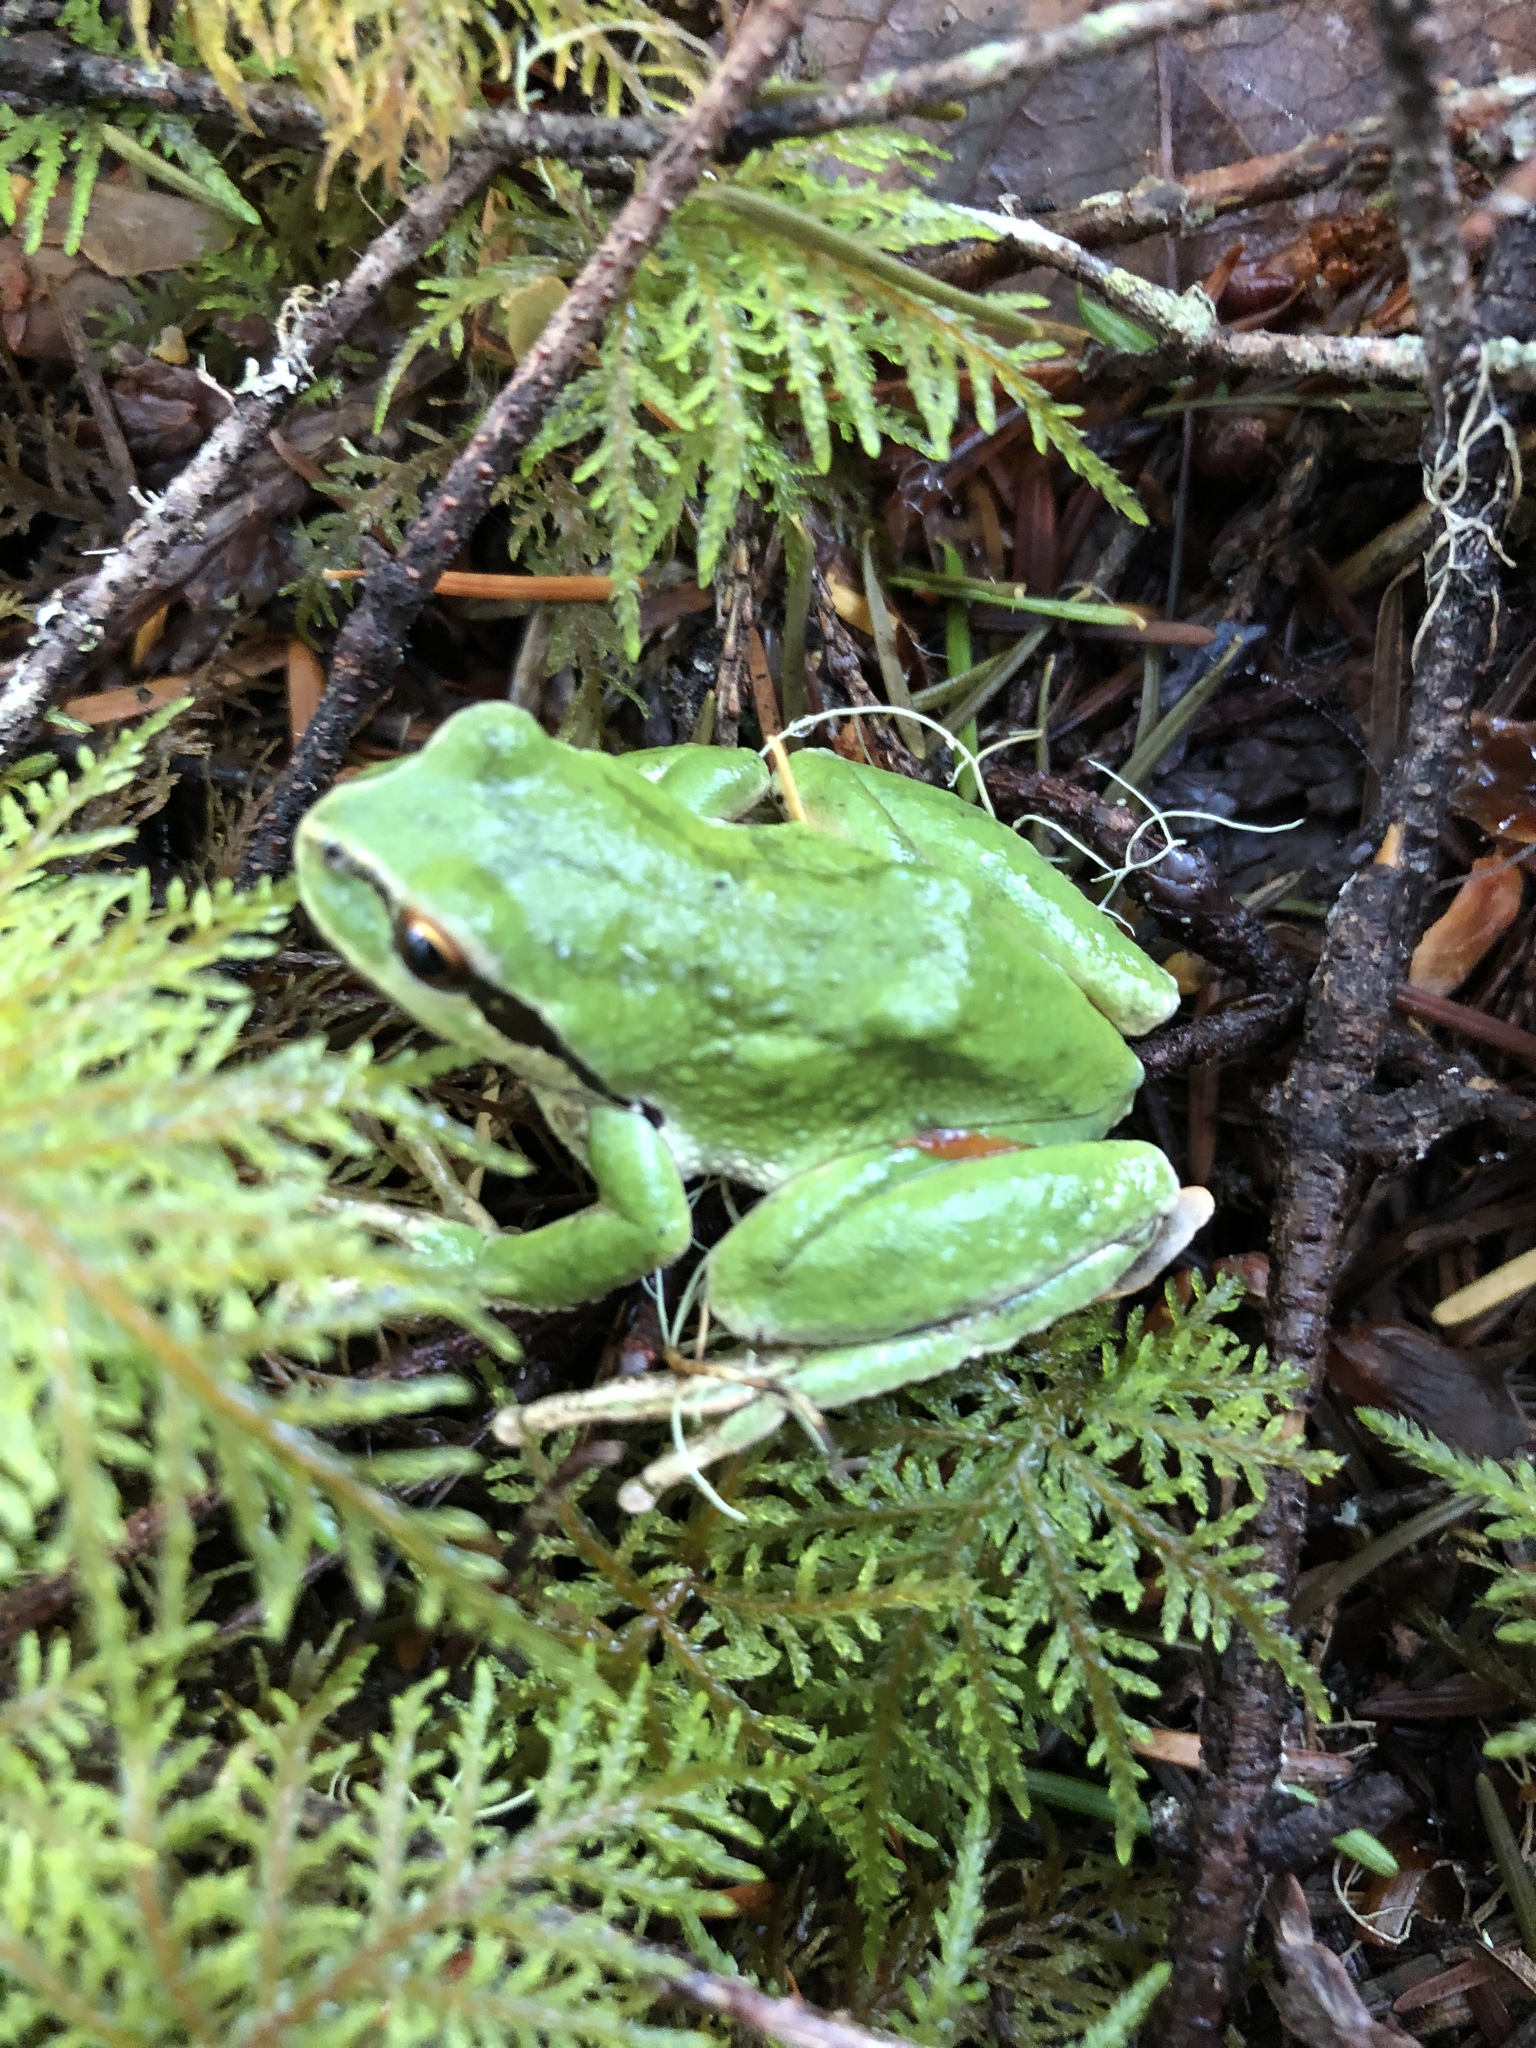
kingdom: Animalia
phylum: Chordata
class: Amphibia
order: Anura
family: Hylidae
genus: Pseudacris
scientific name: Pseudacris regilla
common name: Pacific chorus frog
